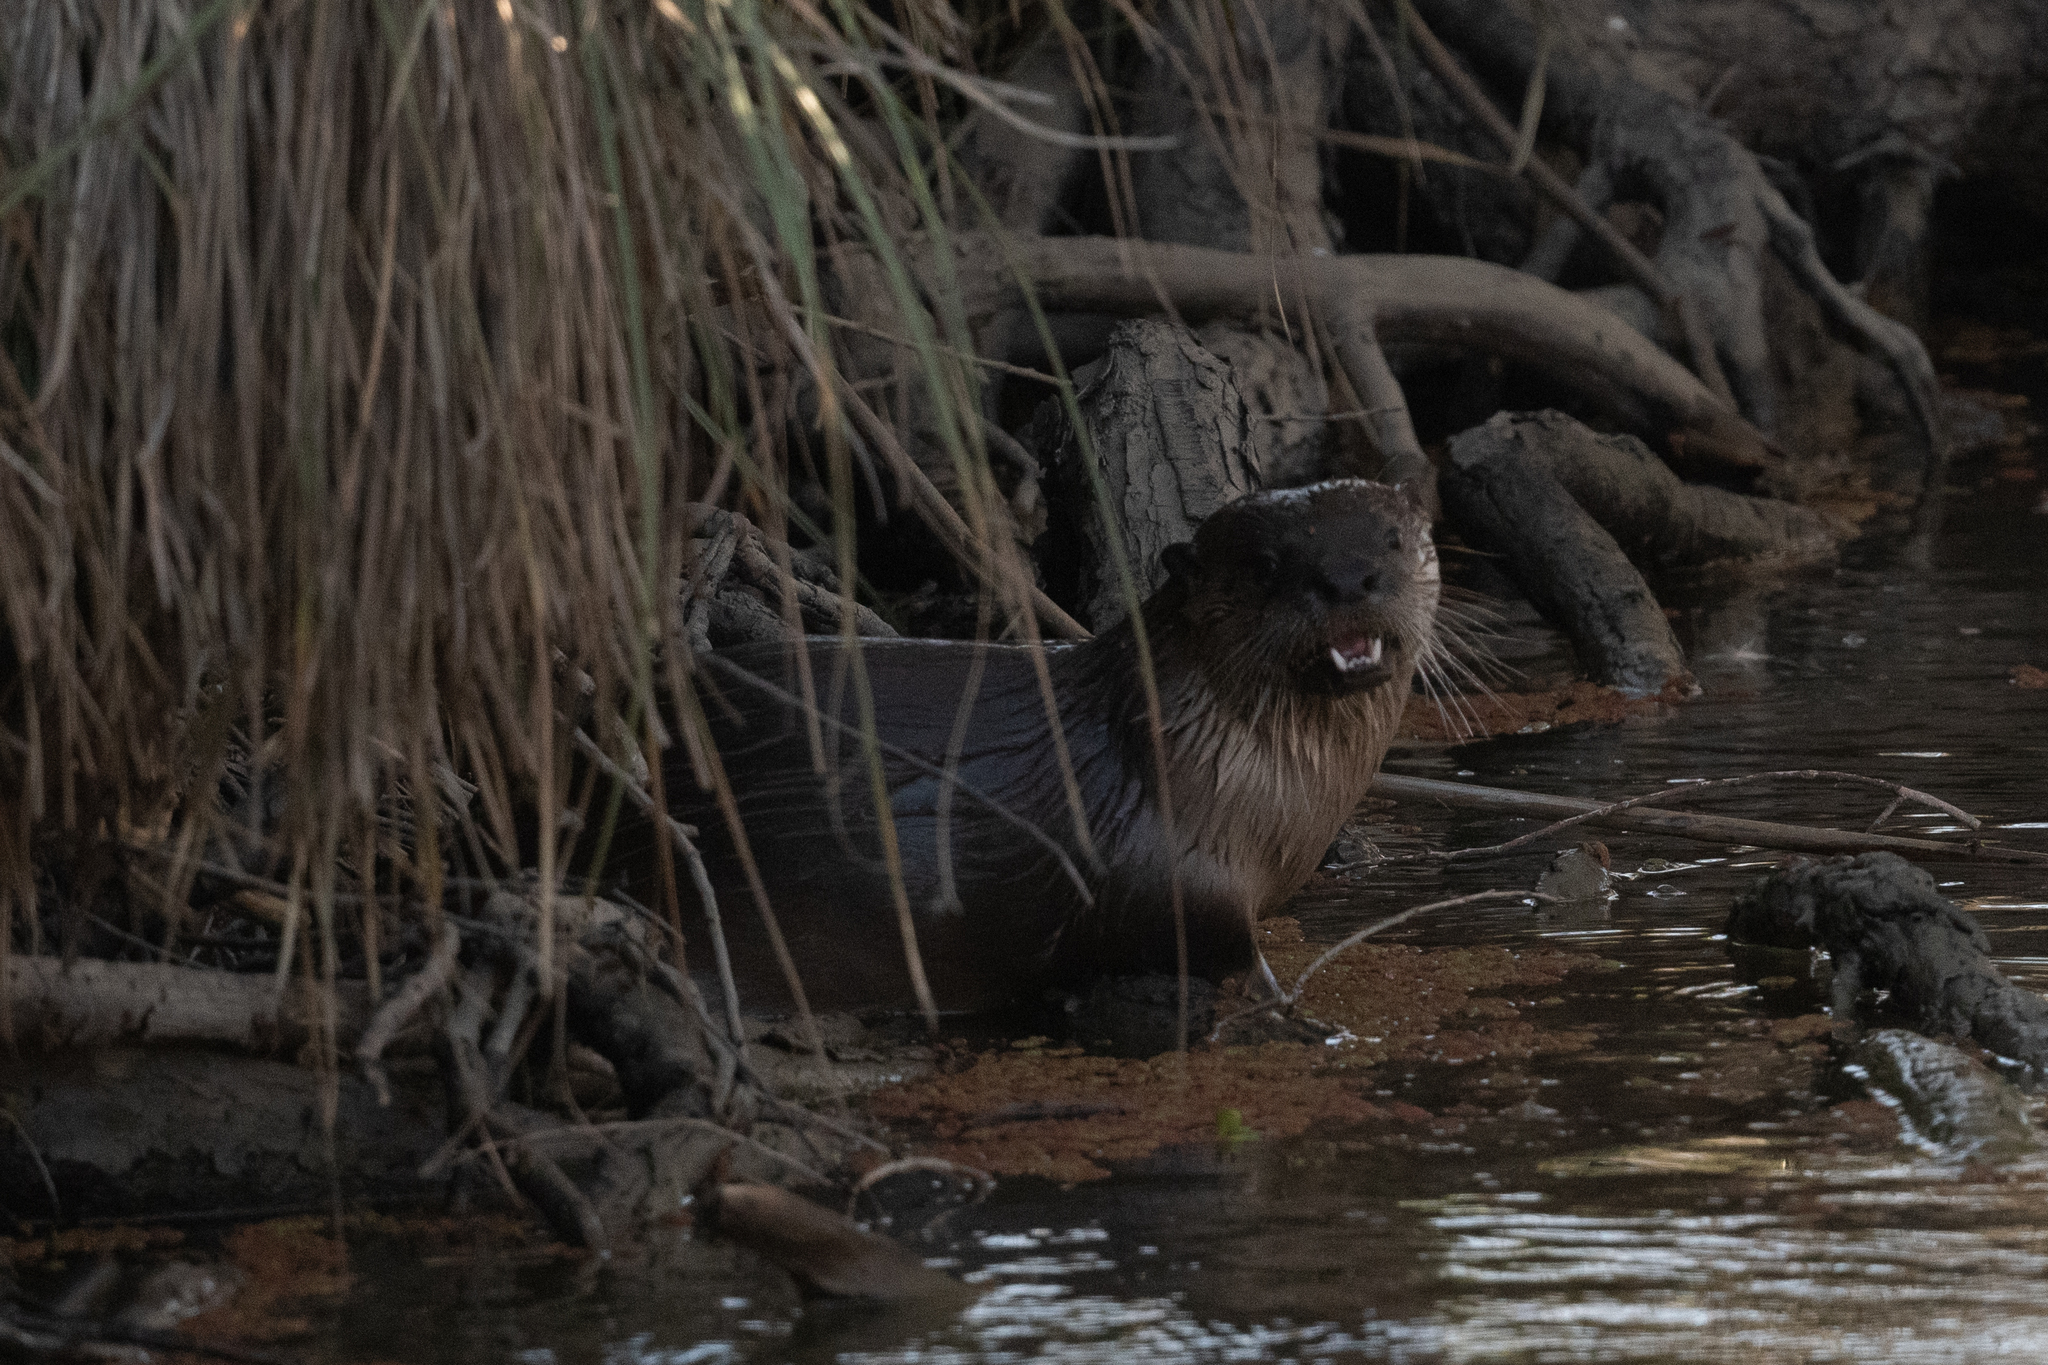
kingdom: Animalia
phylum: Chordata
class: Mammalia
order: Carnivora
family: Mustelidae
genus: Lontra
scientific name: Lontra canadensis
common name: North american river otter
